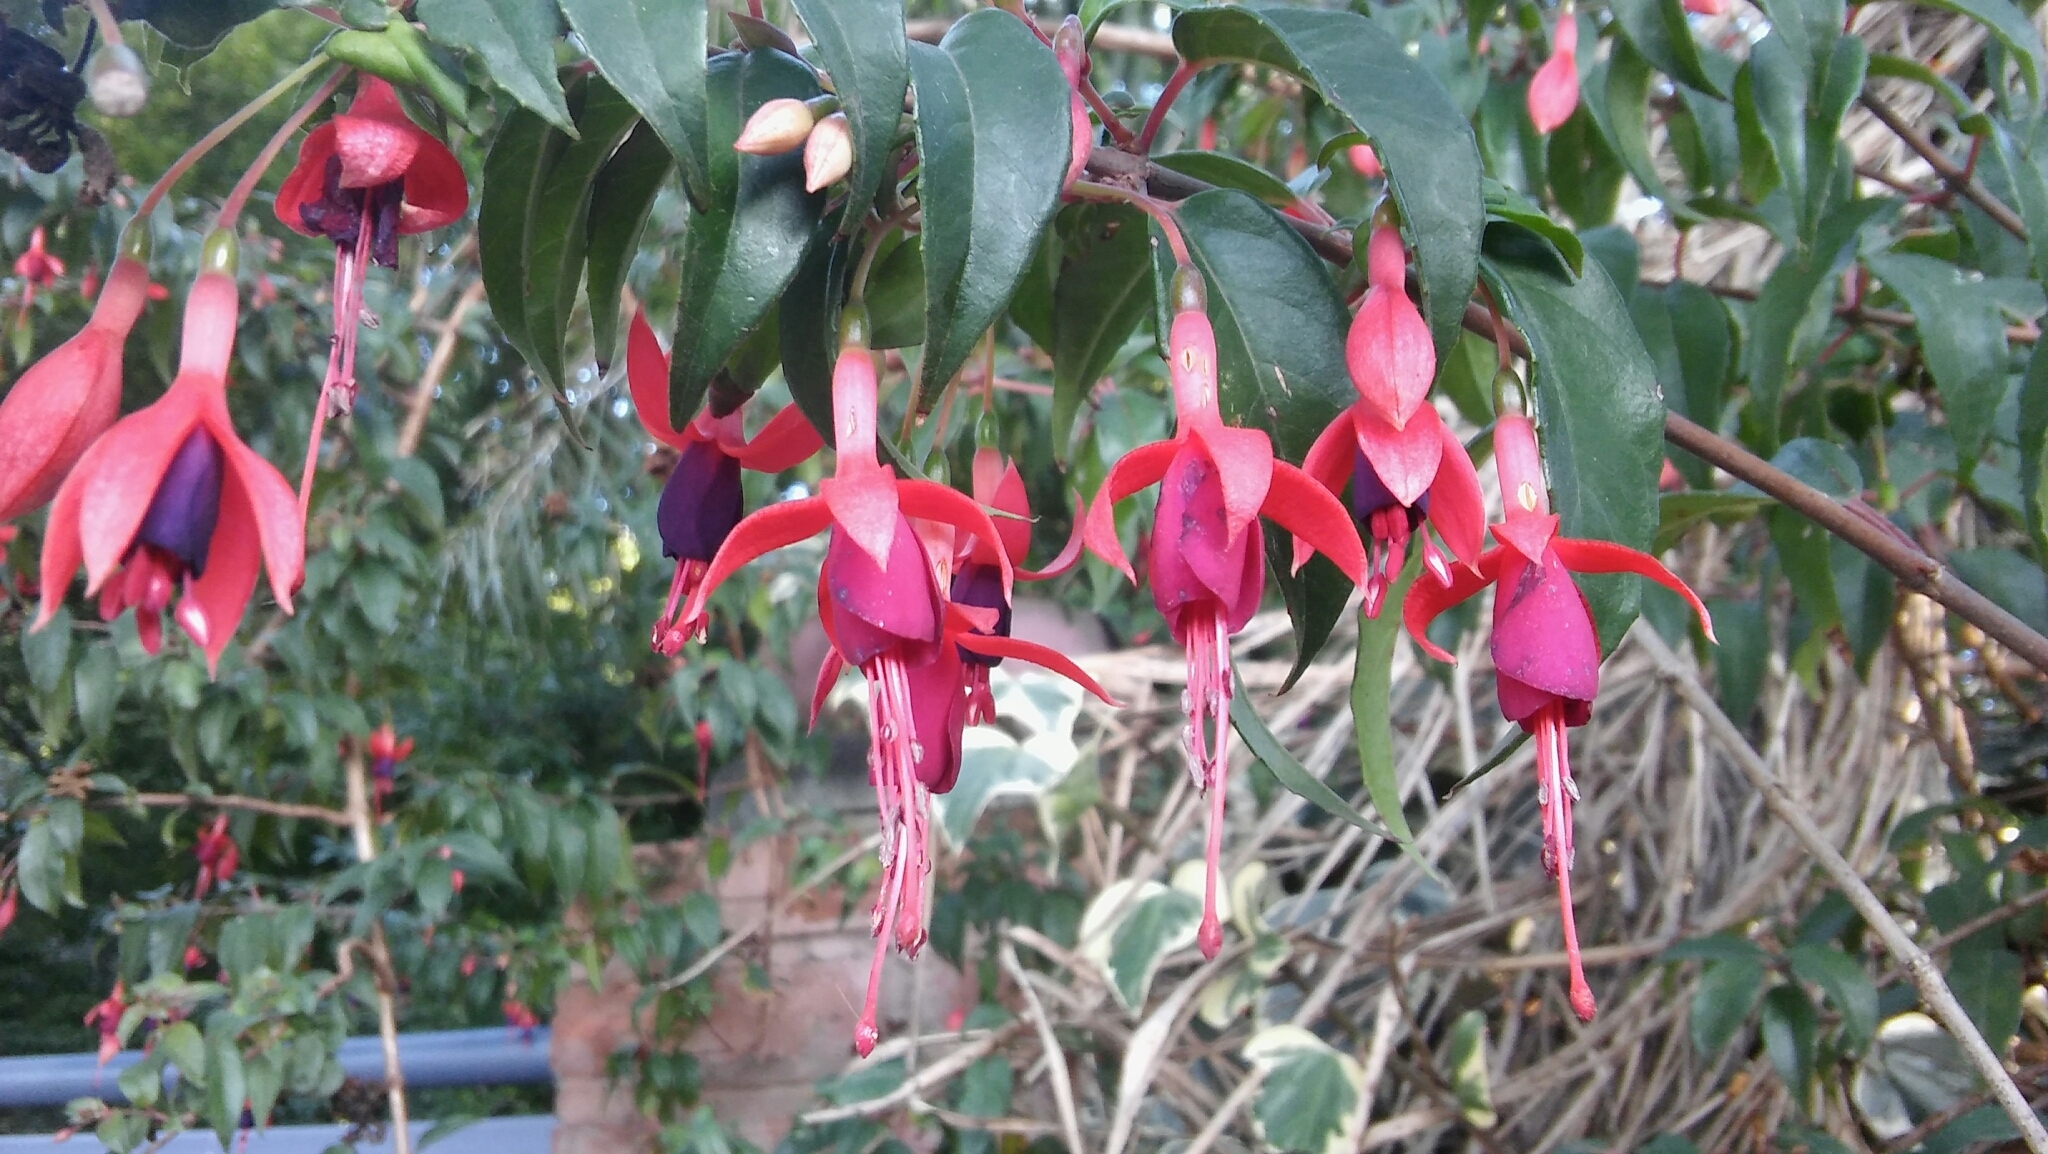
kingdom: Plantae
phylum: Tracheophyta
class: Magnoliopsida
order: Myrtales
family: Onagraceae
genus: Fuchsia
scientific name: Fuchsia magellanica
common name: Hardy fuchsia
